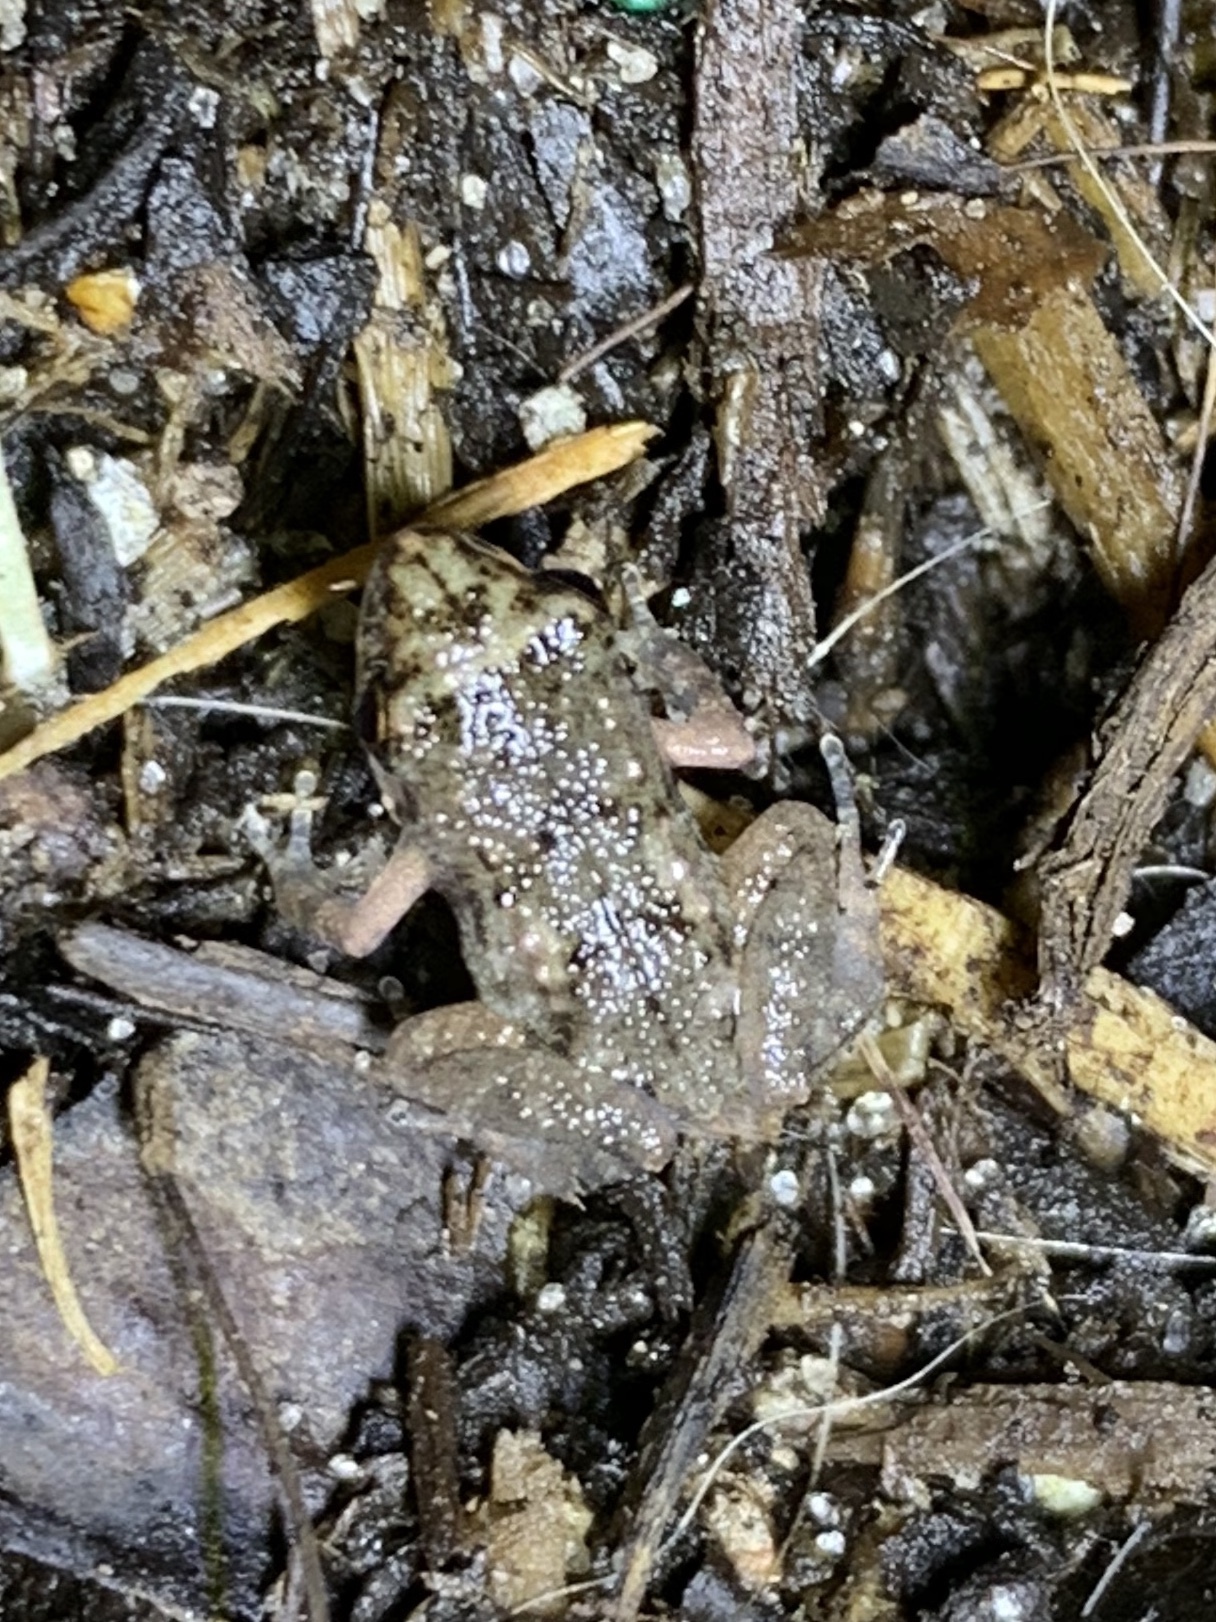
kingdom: Animalia
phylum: Chordata
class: Amphibia
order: Anura
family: Eleutherodactylidae
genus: Eleutherodactylus
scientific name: Eleutherodactylus planirostris
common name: Greenhouse frog
